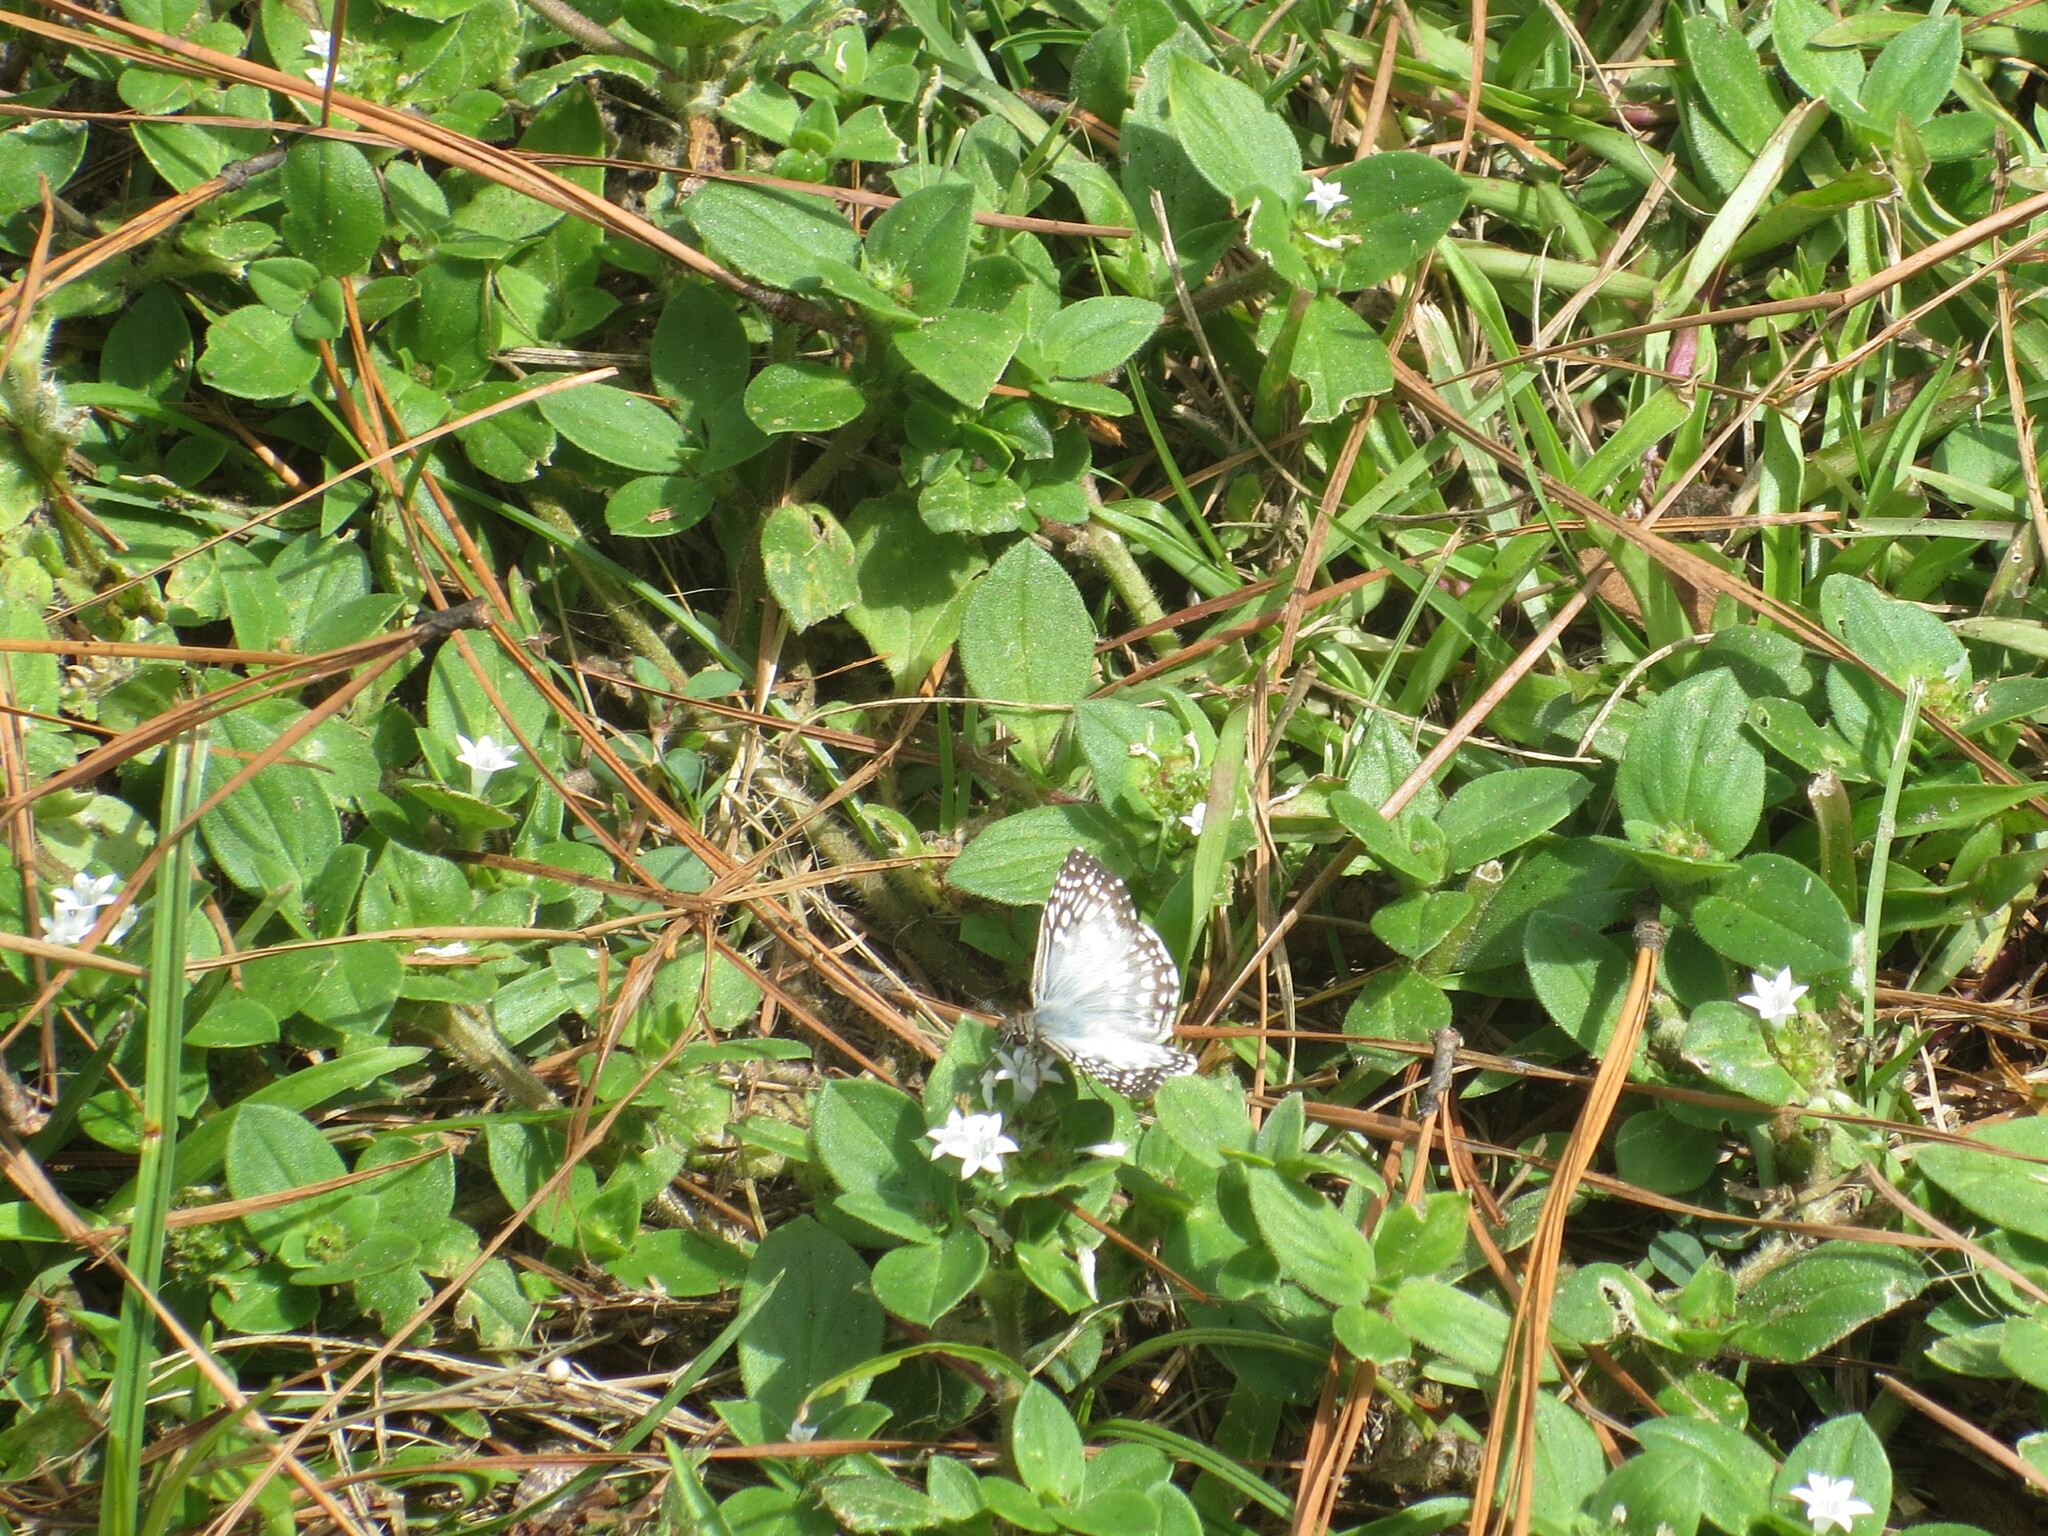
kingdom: Animalia
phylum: Arthropoda
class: Insecta
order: Lepidoptera
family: Hesperiidae
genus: Pyrgus
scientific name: Pyrgus oileus
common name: Tropical checkered-skipper
